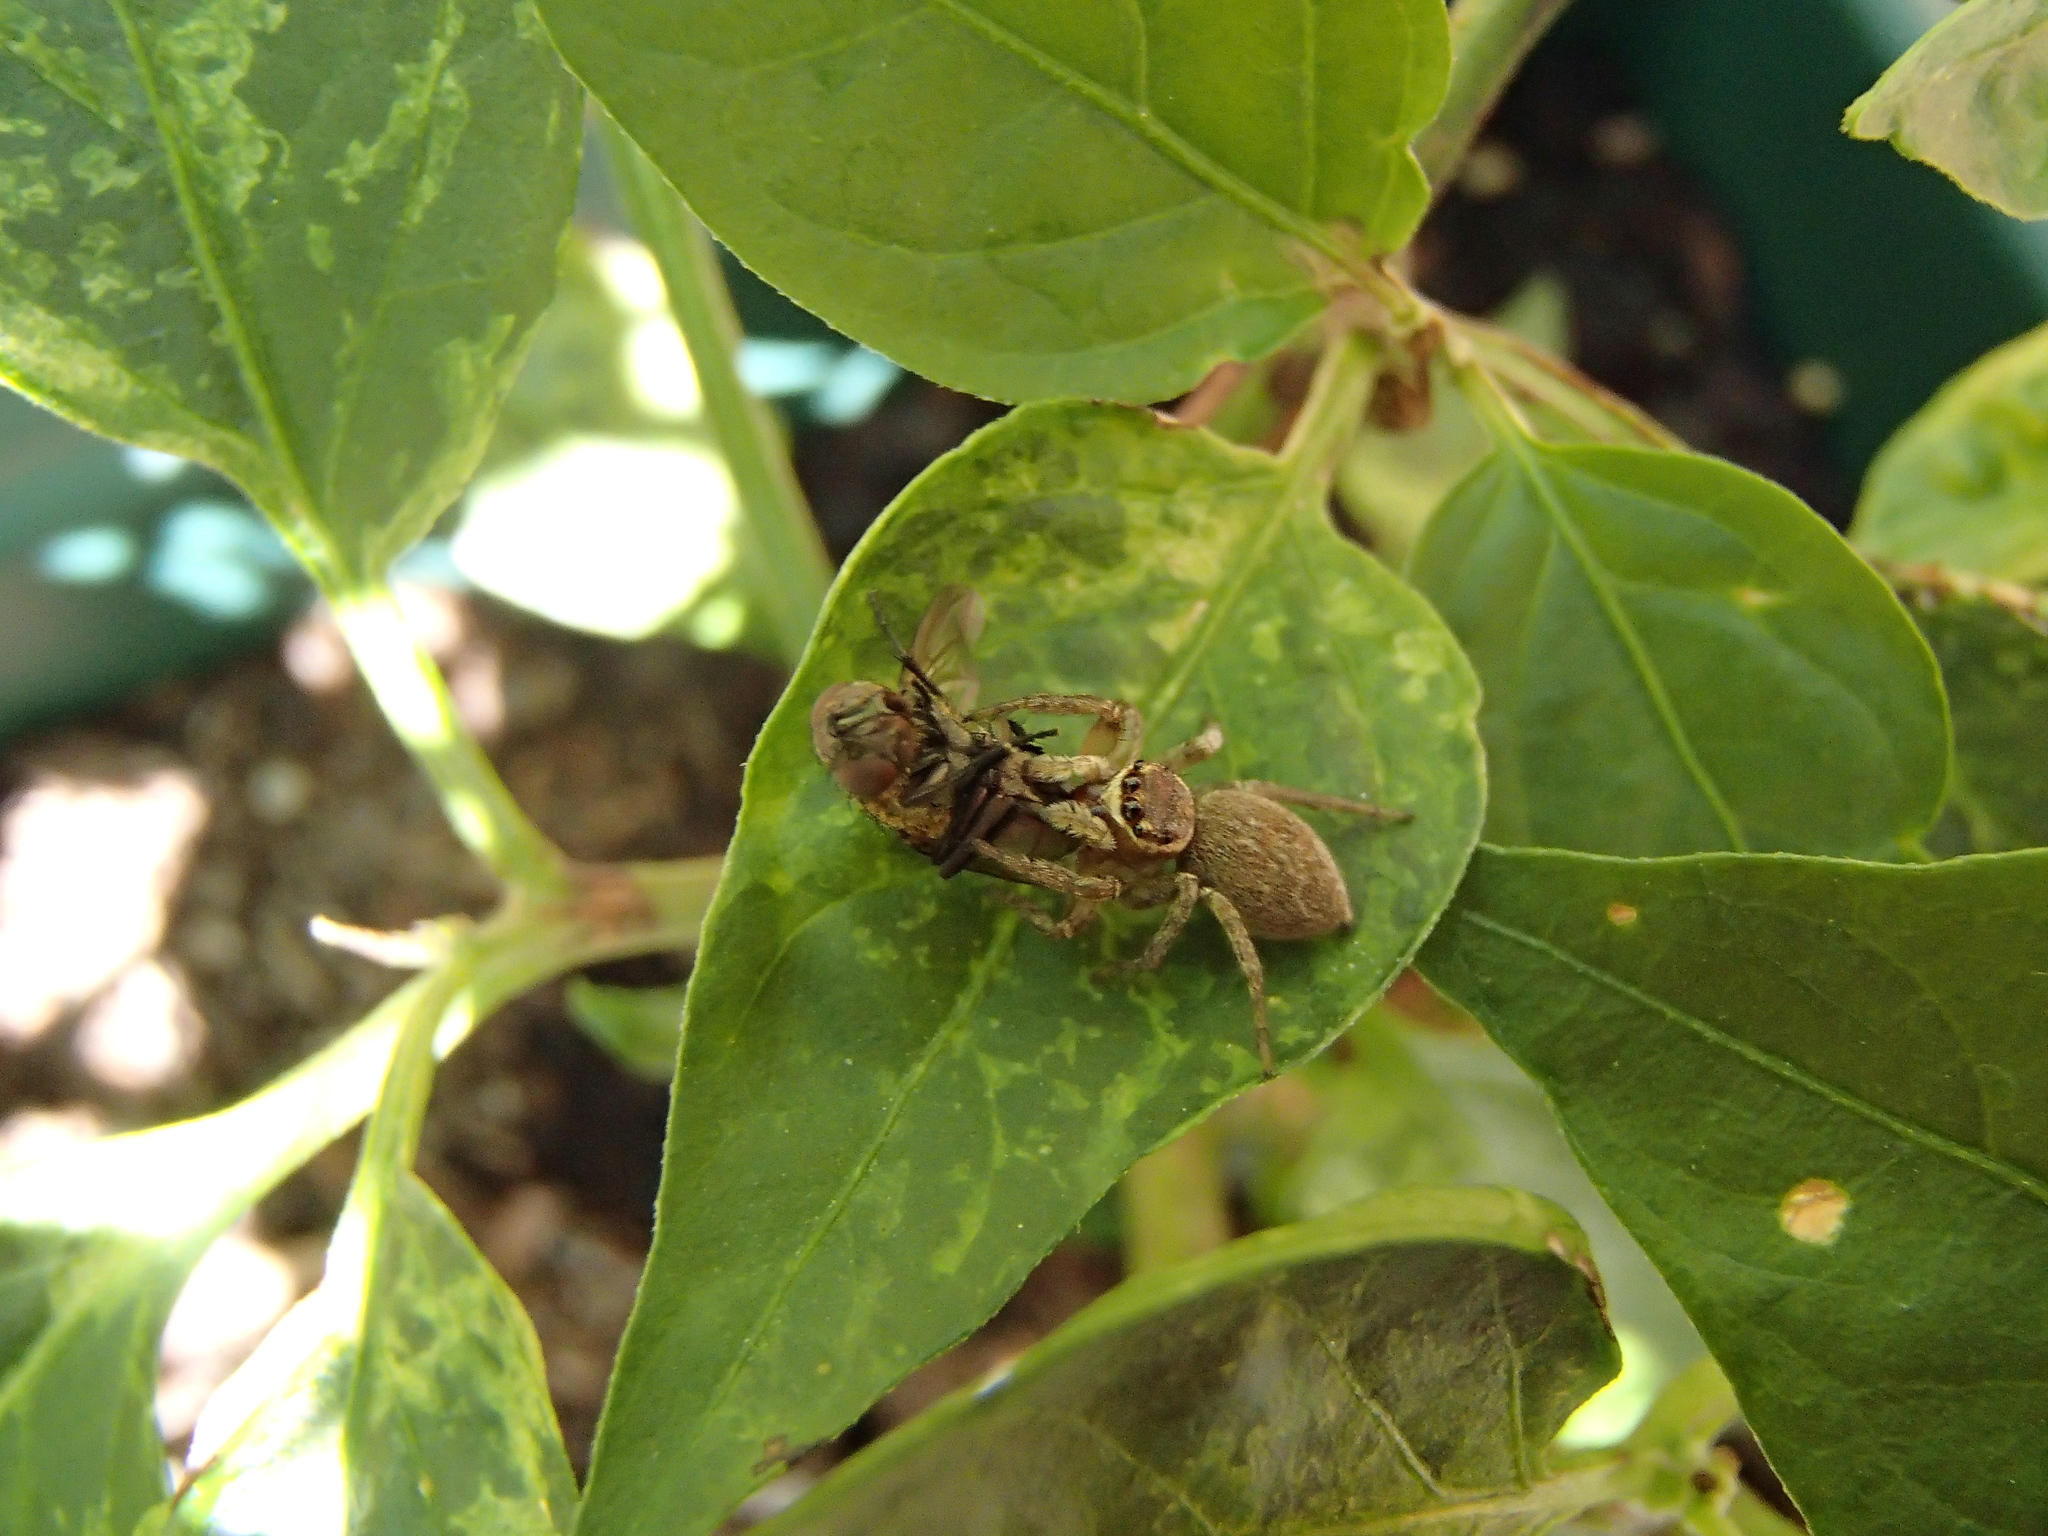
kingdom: Animalia
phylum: Arthropoda
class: Arachnida
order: Araneae
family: Salticidae
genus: Maratus
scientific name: Maratus griseus
